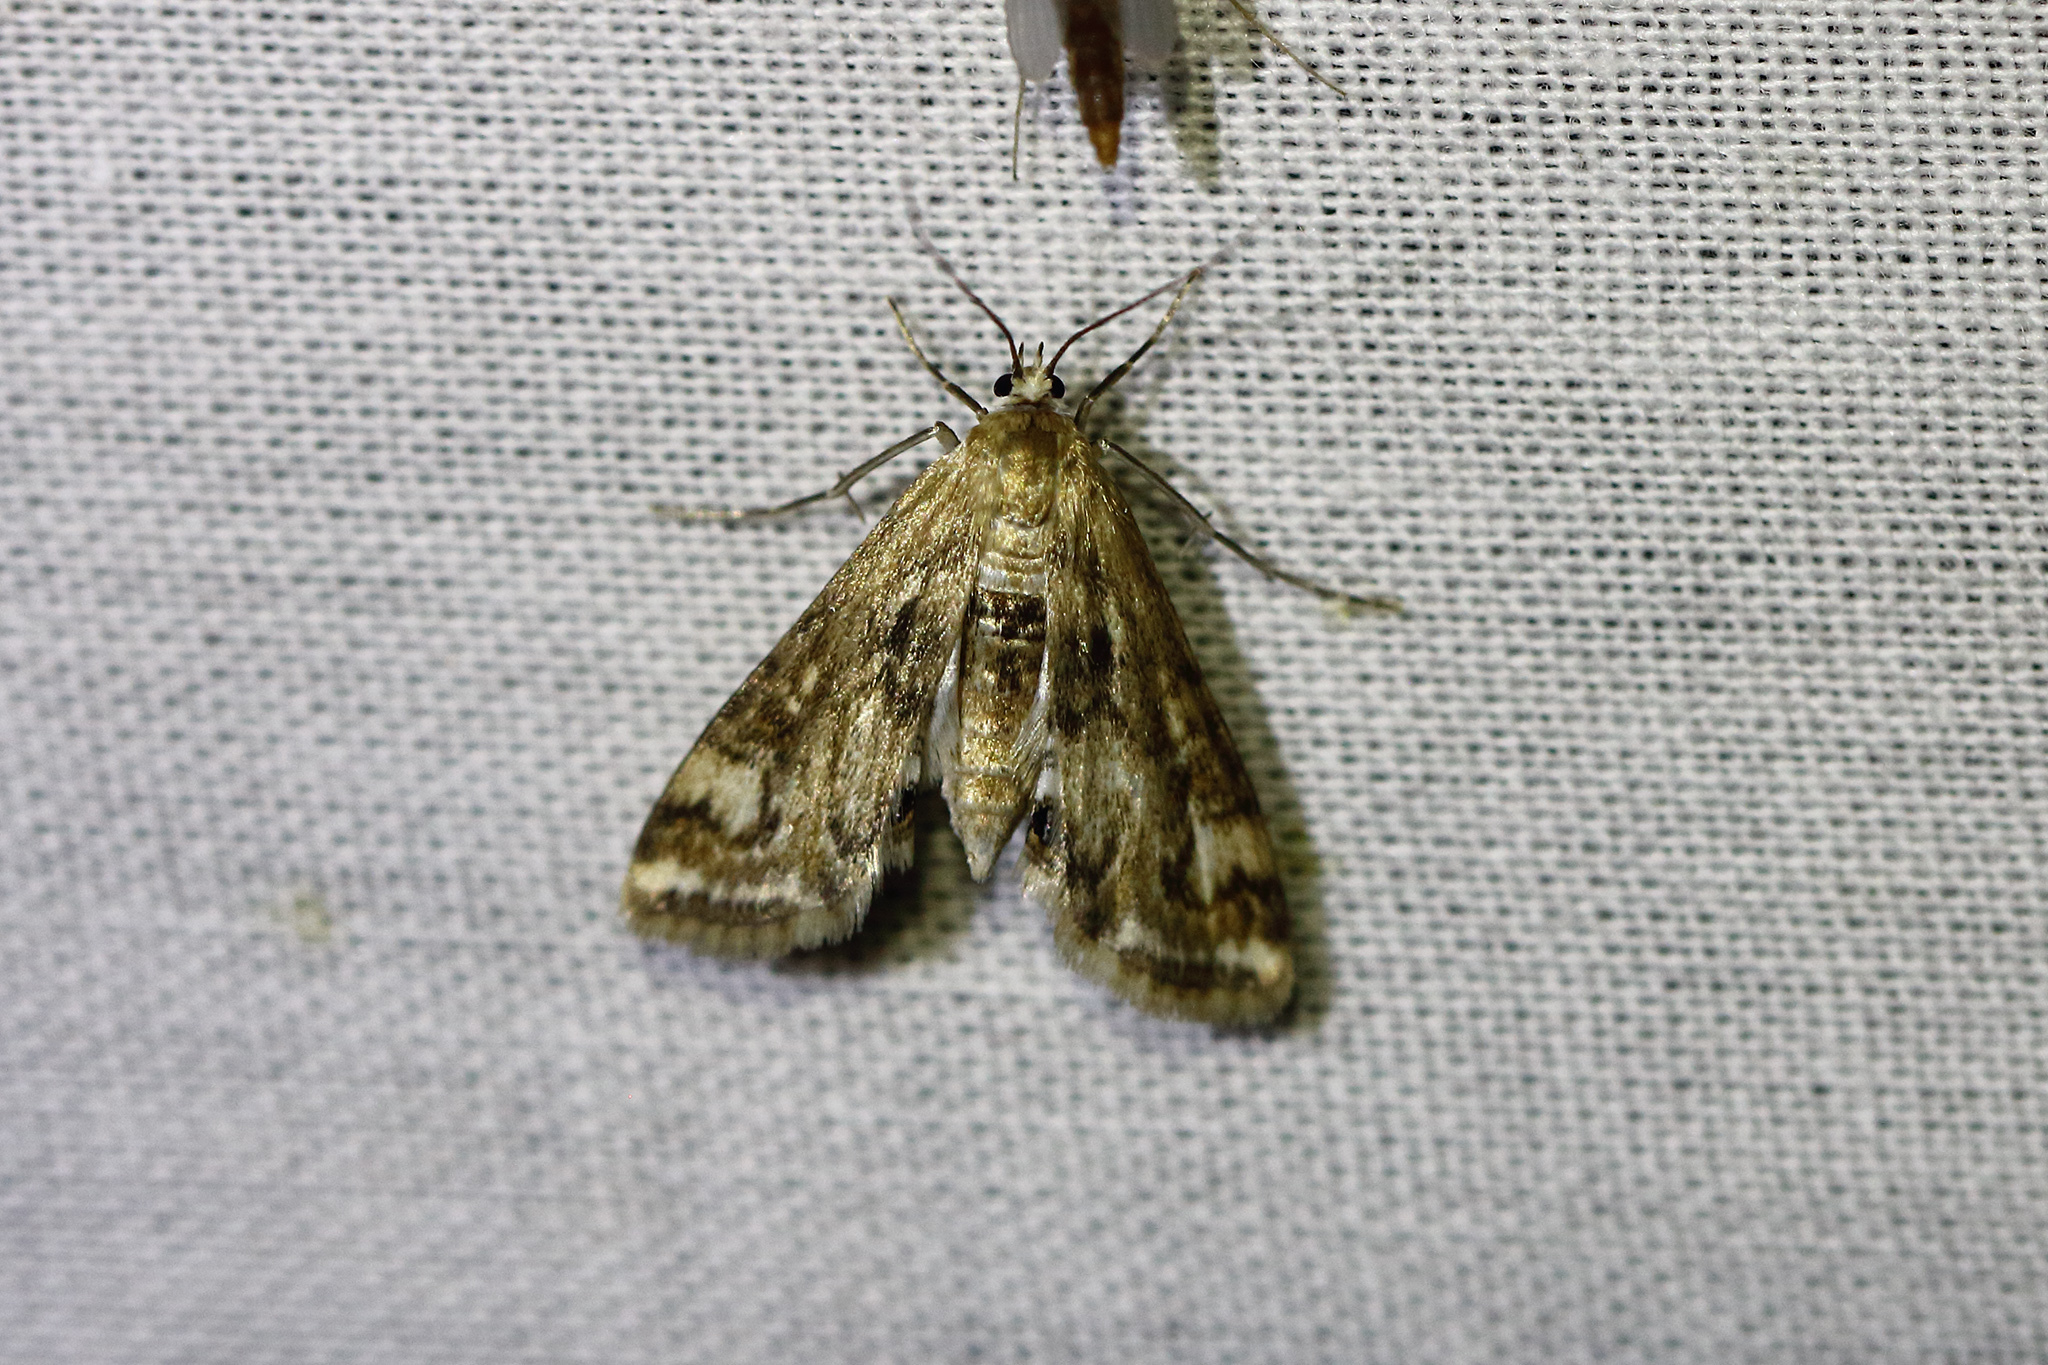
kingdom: Animalia
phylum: Arthropoda
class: Insecta
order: Lepidoptera
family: Crambidae
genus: Cataclysta
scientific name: Cataclysta lemnata
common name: Small china-mark
